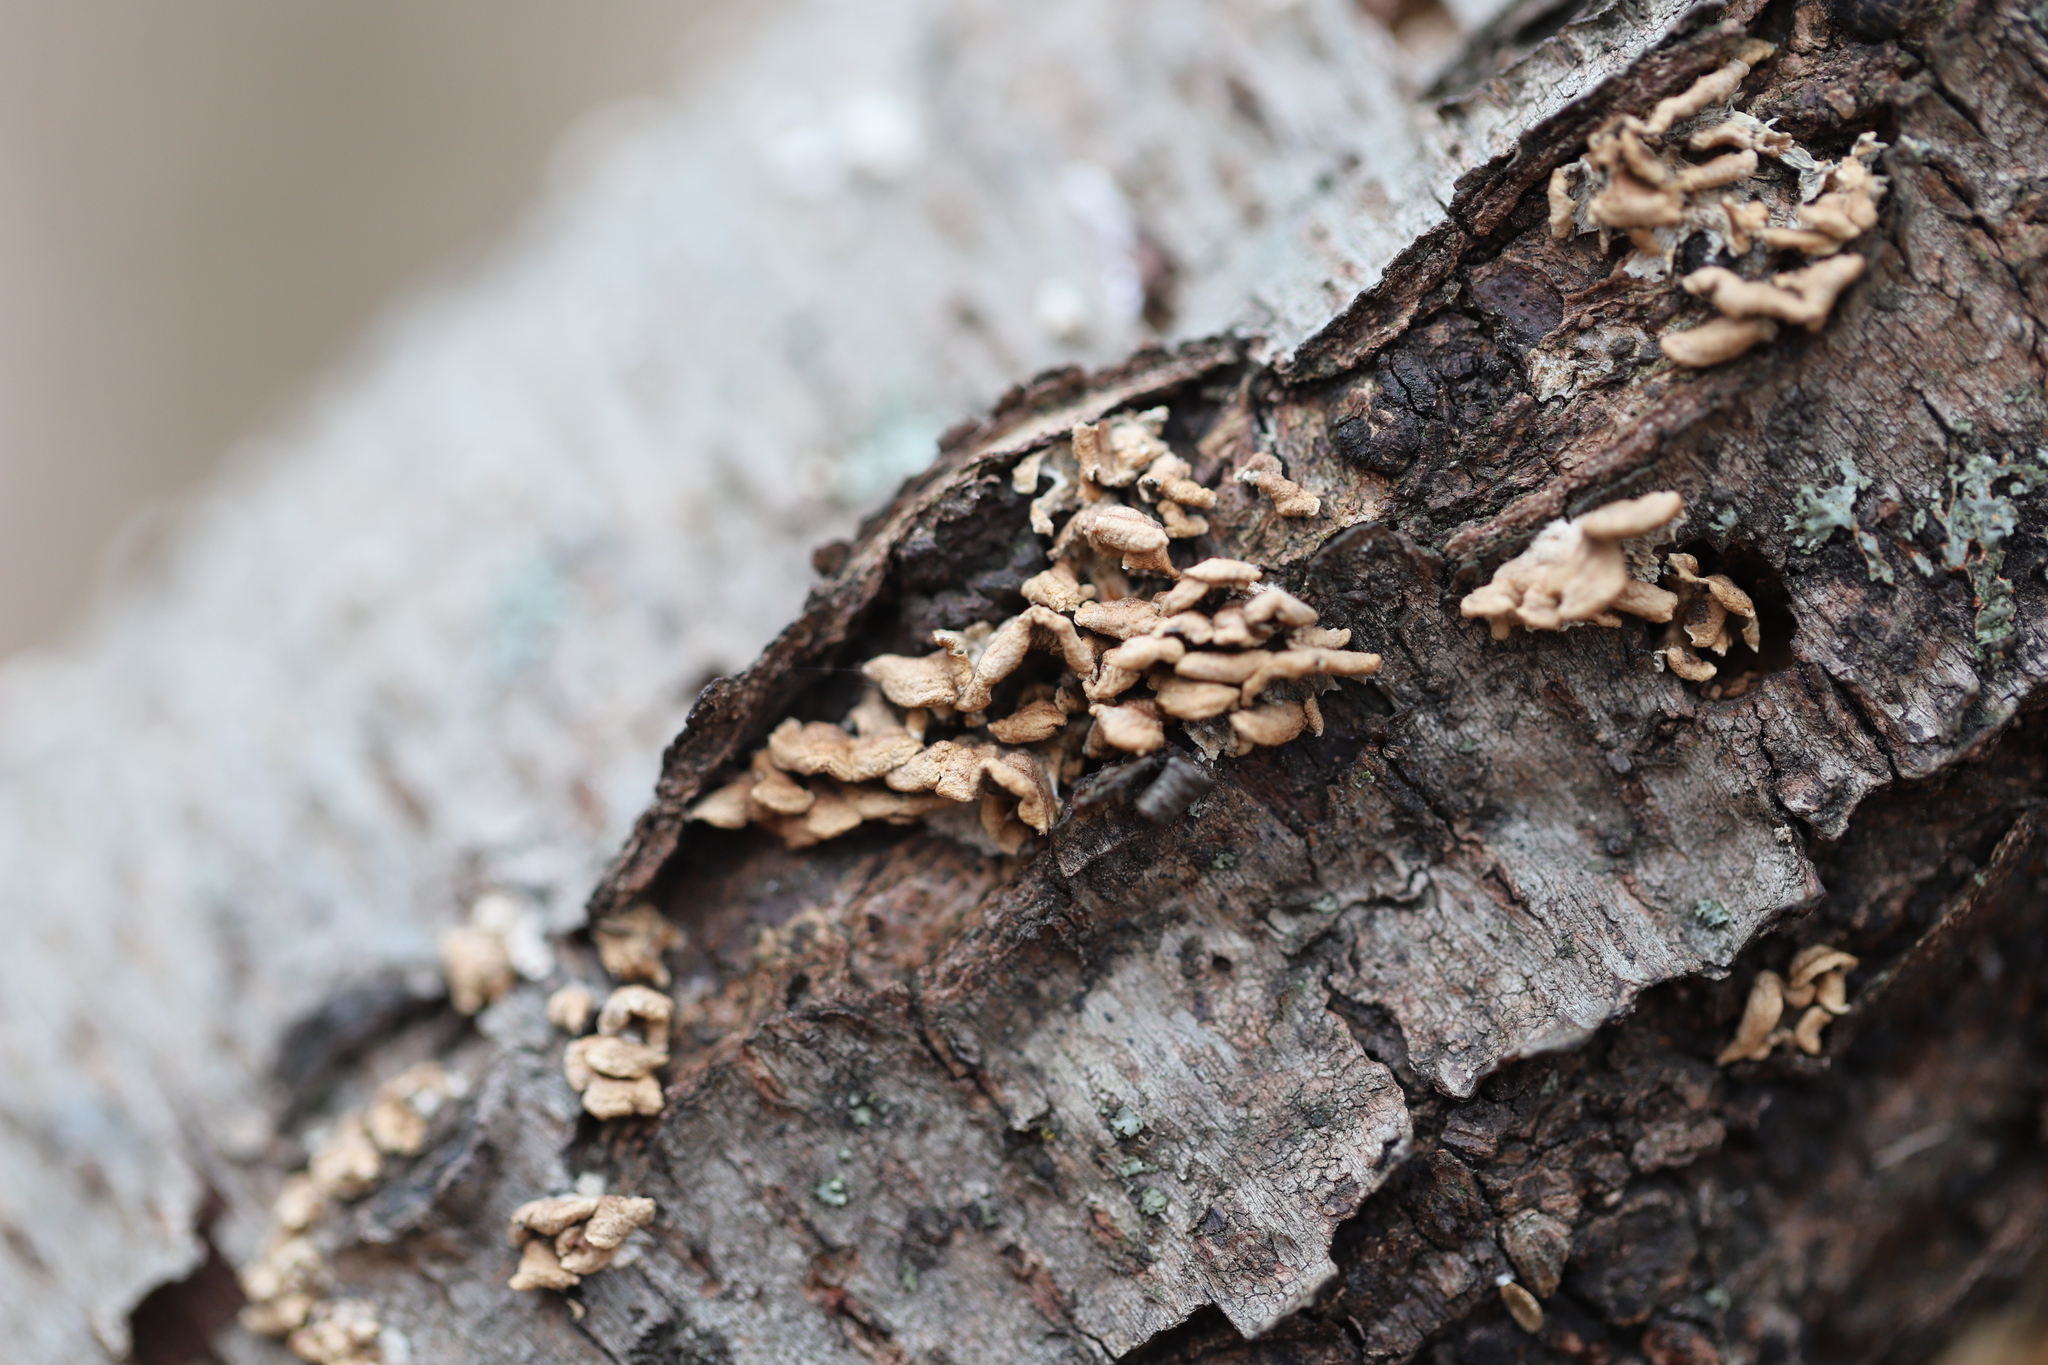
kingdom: Fungi
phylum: Basidiomycota
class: Agaricomycetes
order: Amylocorticiales
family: Amylocorticiaceae
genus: Plicaturopsis
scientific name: Plicaturopsis crispa
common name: Crimped gill
